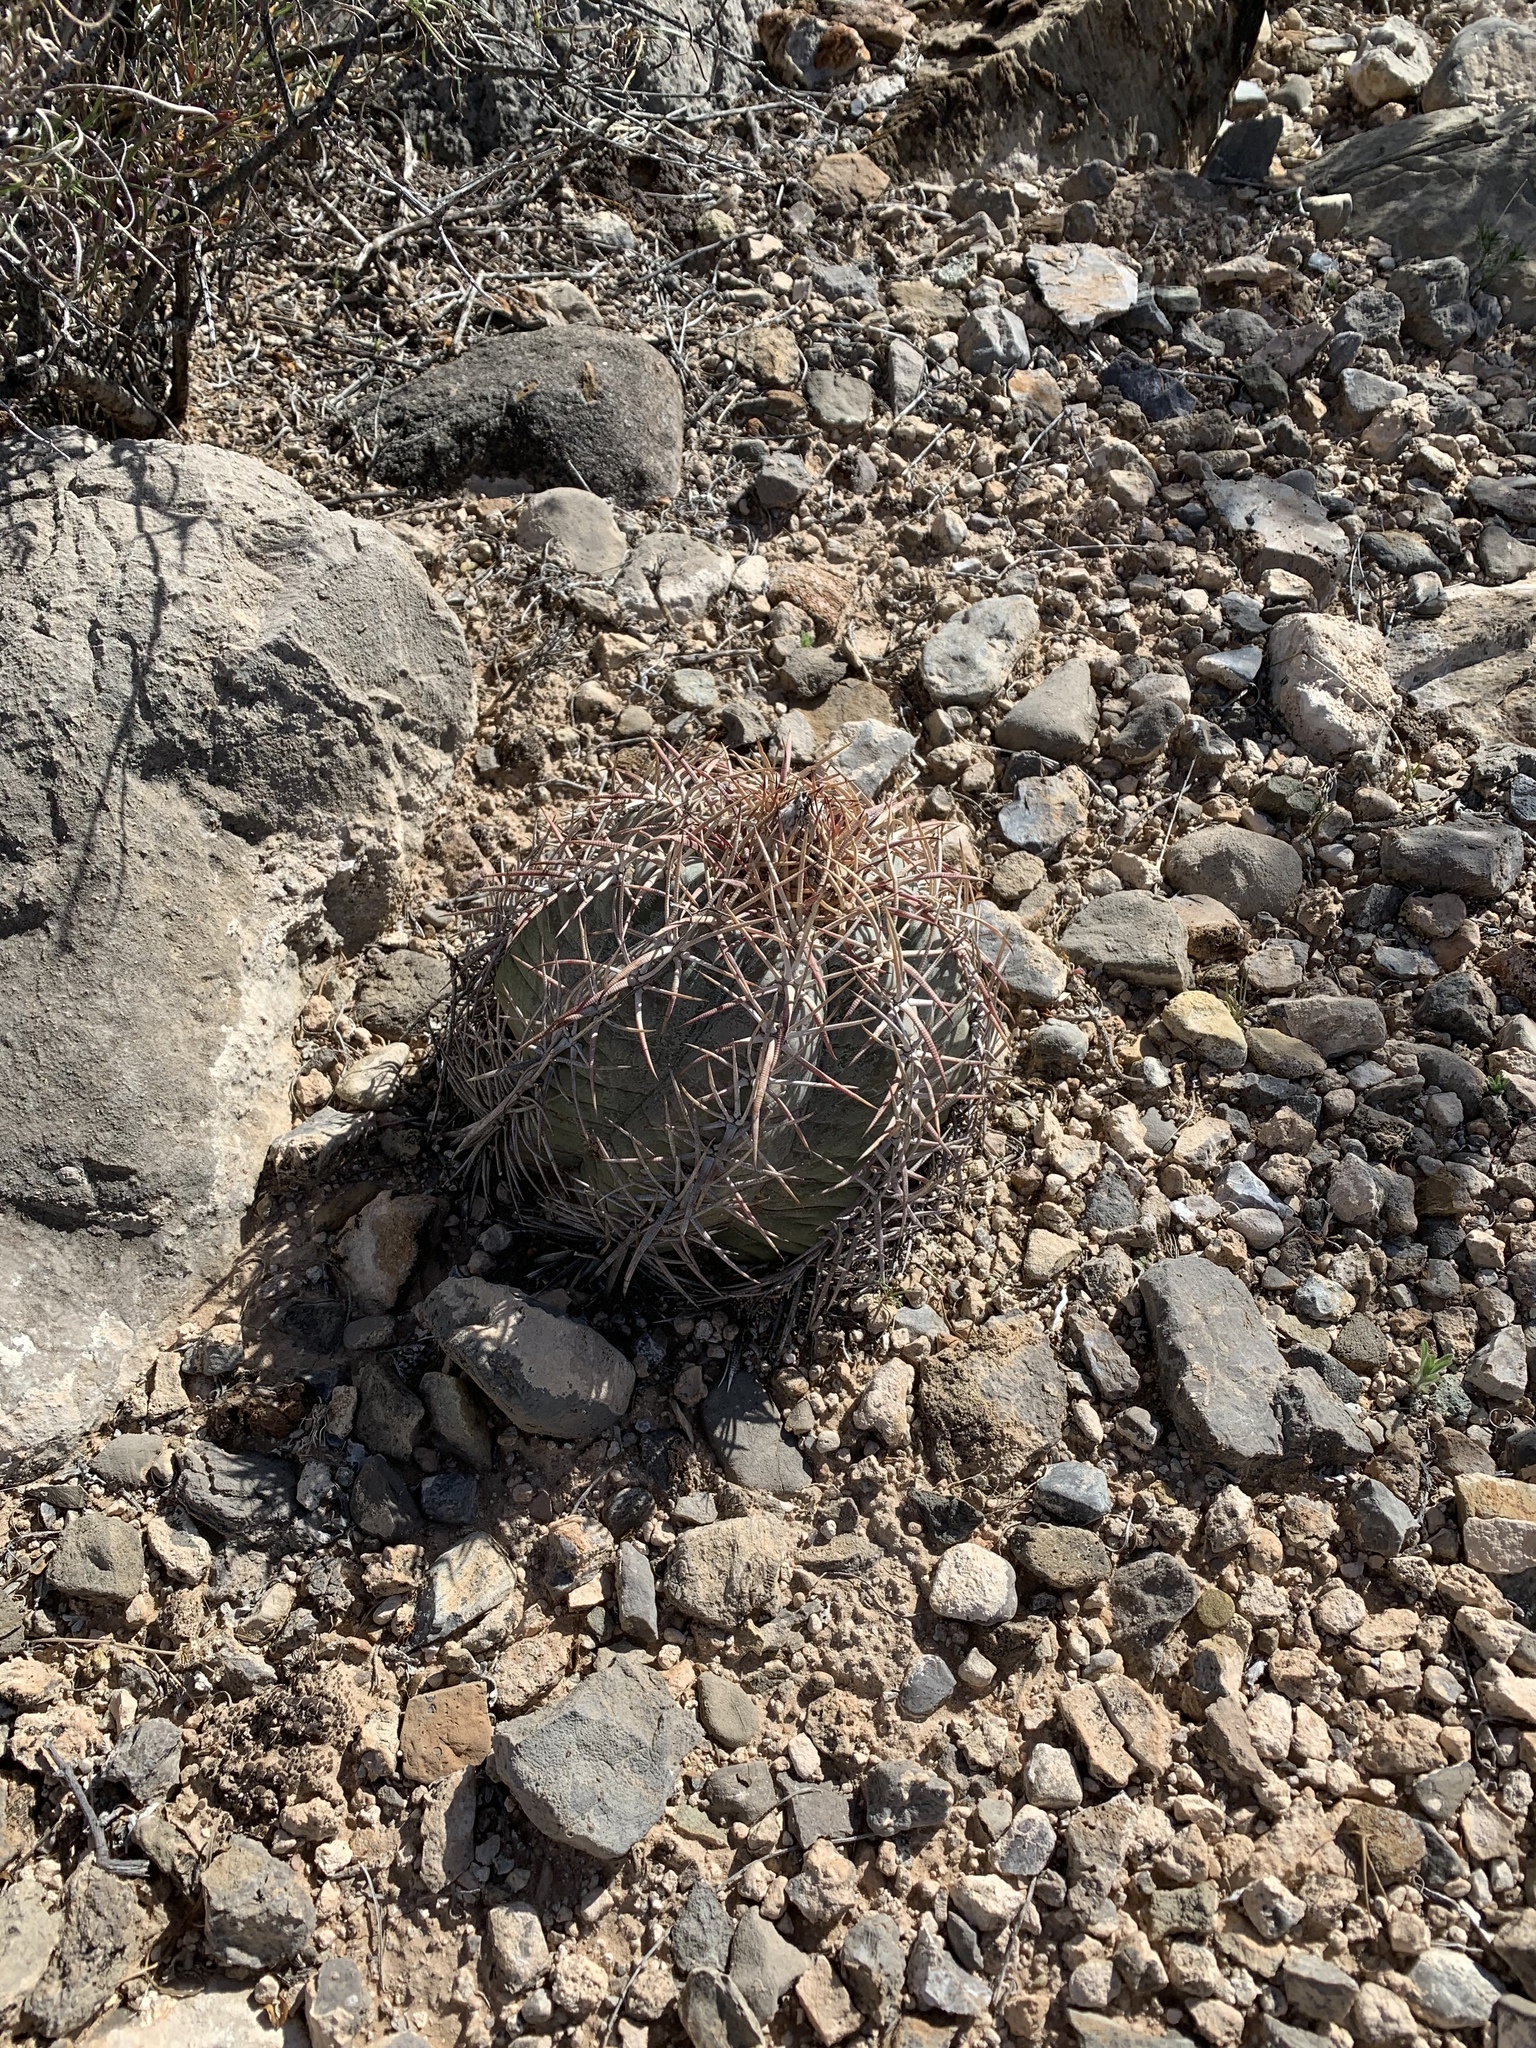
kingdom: Plantae
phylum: Tracheophyta
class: Magnoliopsida
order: Caryophyllales
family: Cactaceae
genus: Echinocactus
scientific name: Echinocactus horizonthalonius
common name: Devilshead
